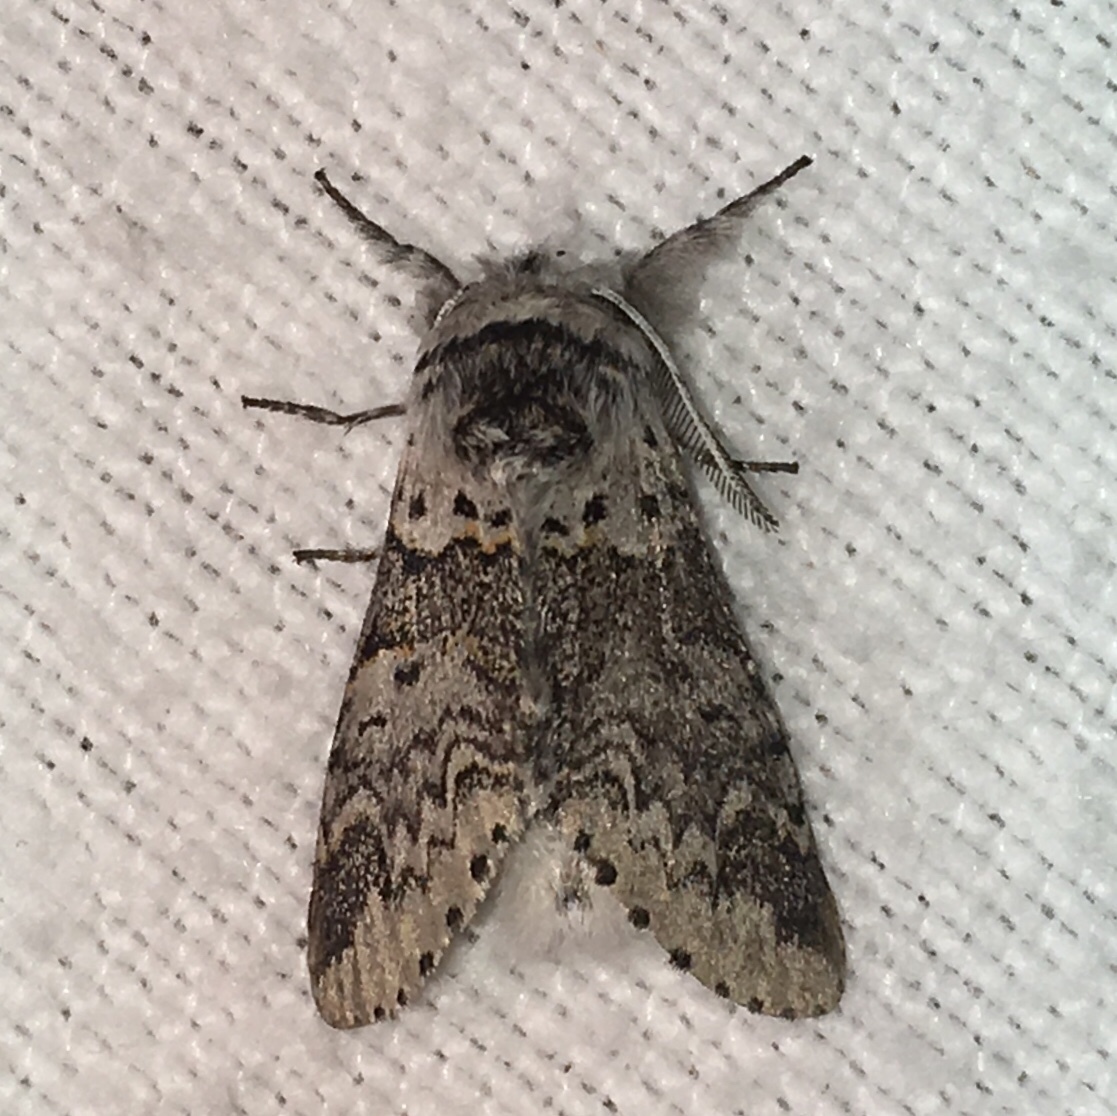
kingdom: Animalia
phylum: Arthropoda
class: Insecta
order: Lepidoptera
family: Notodontidae
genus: Furcula
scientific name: Furcula occidentalis
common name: Western furcula moth
